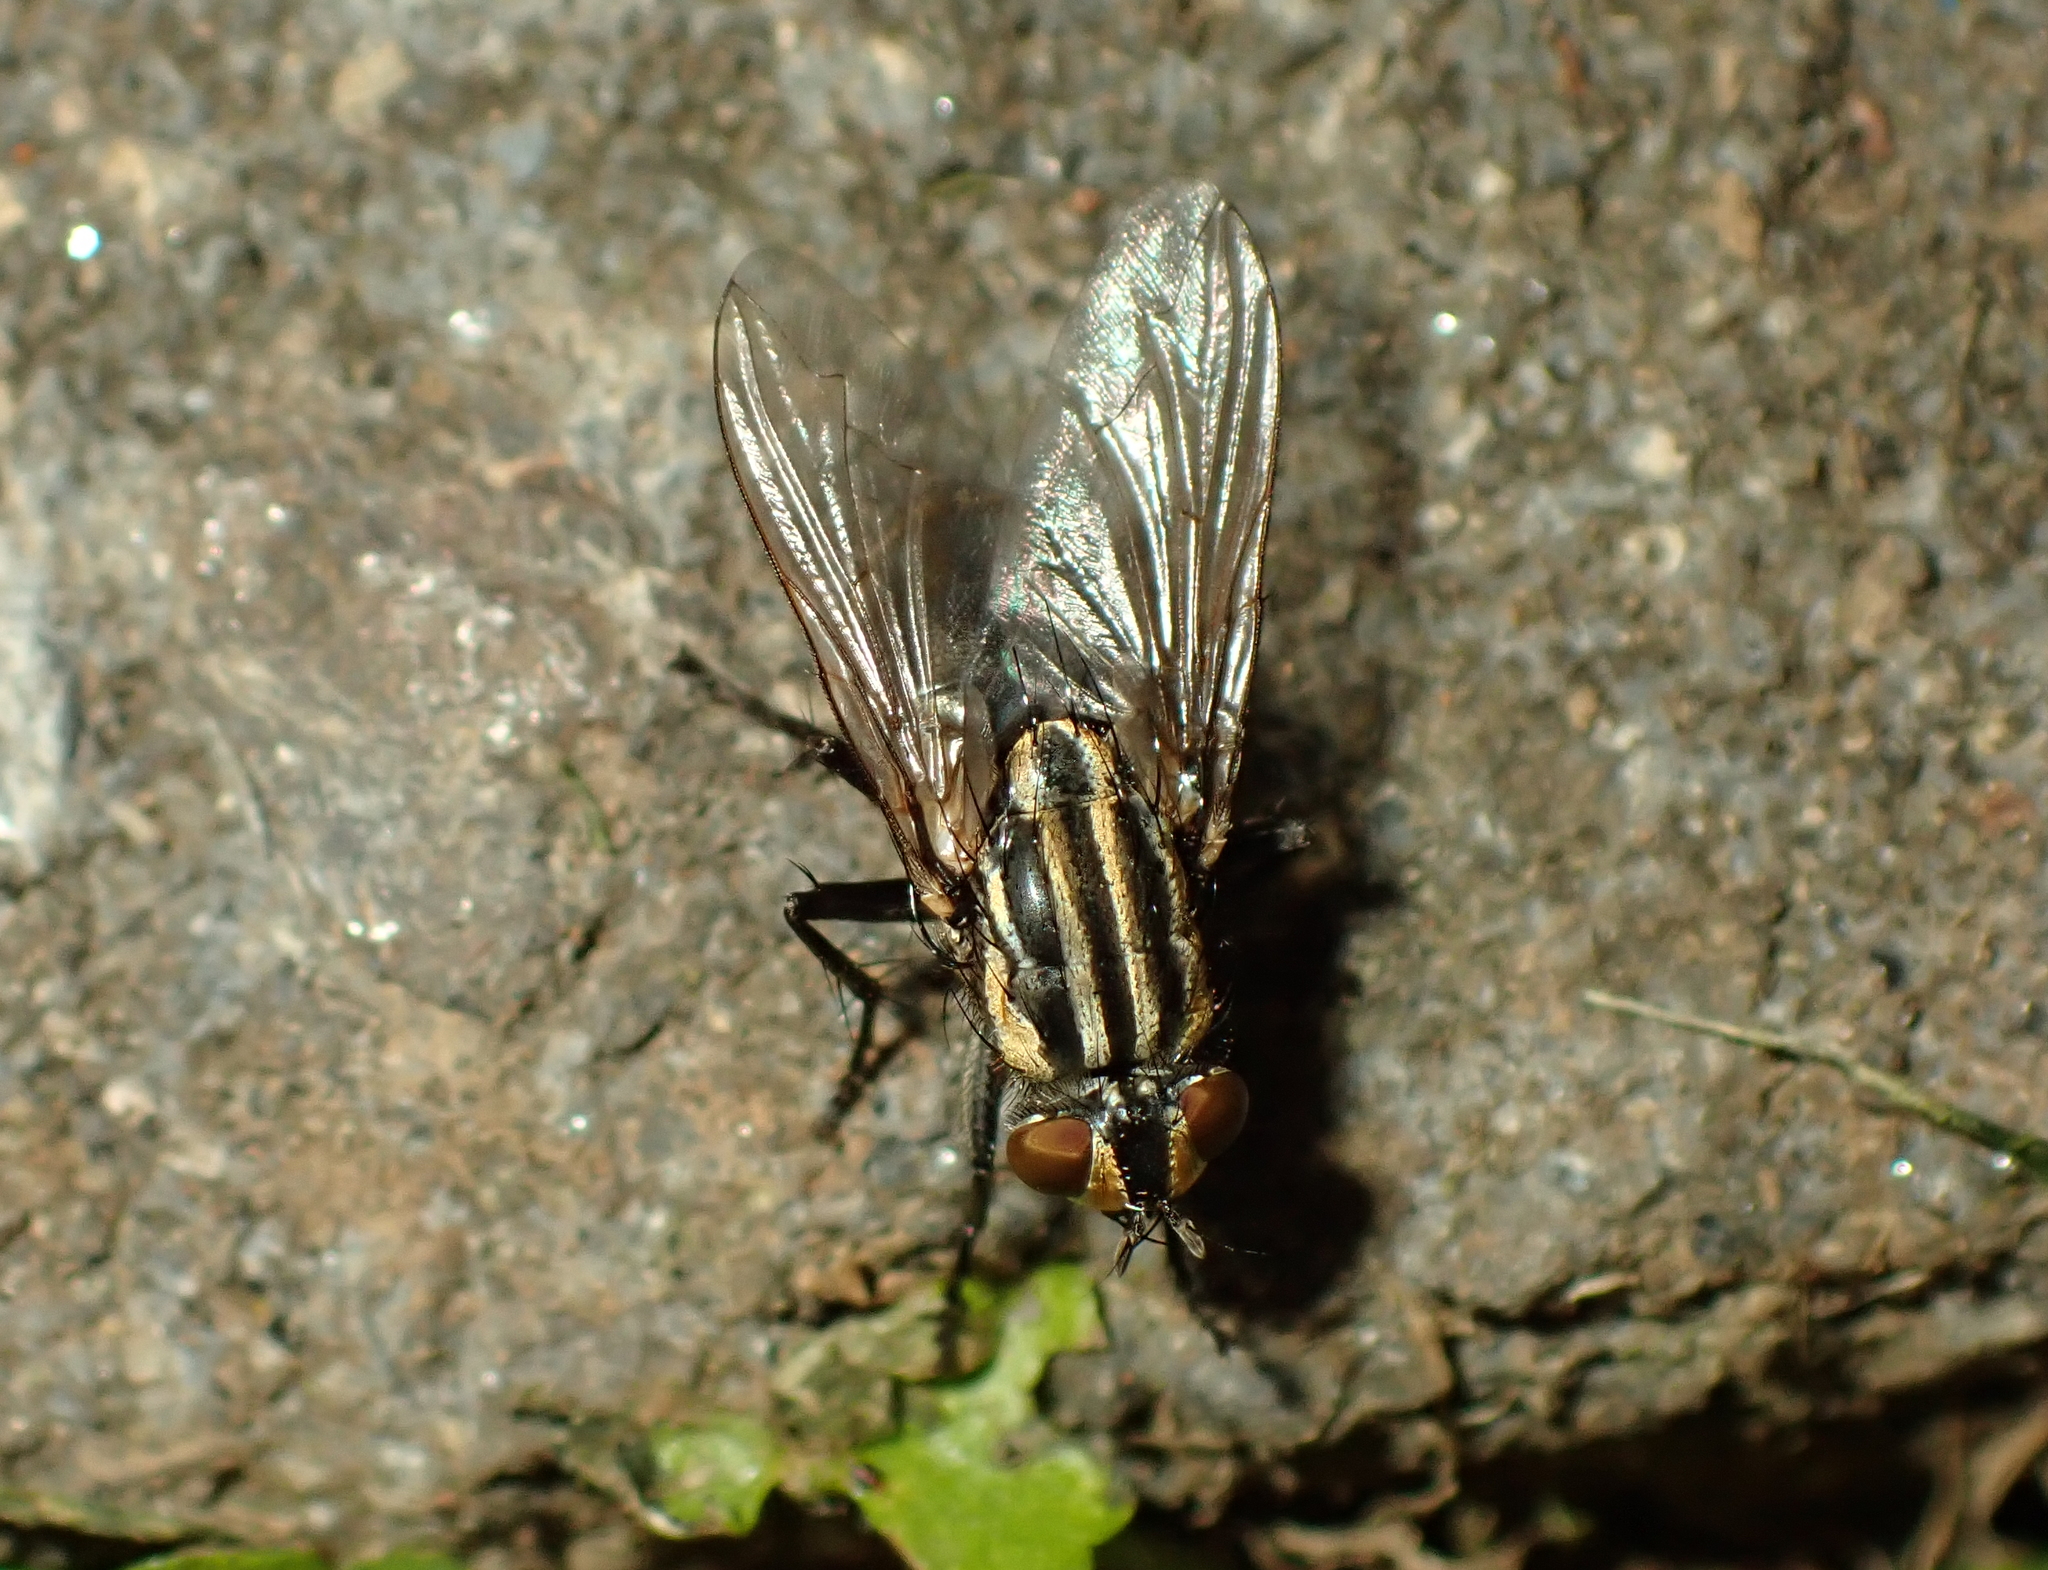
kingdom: Animalia
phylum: Arthropoda
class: Insecta
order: Diptera
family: Sarcophagidae
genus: Oxysarcodexia
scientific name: Oxysarcodexia varia
